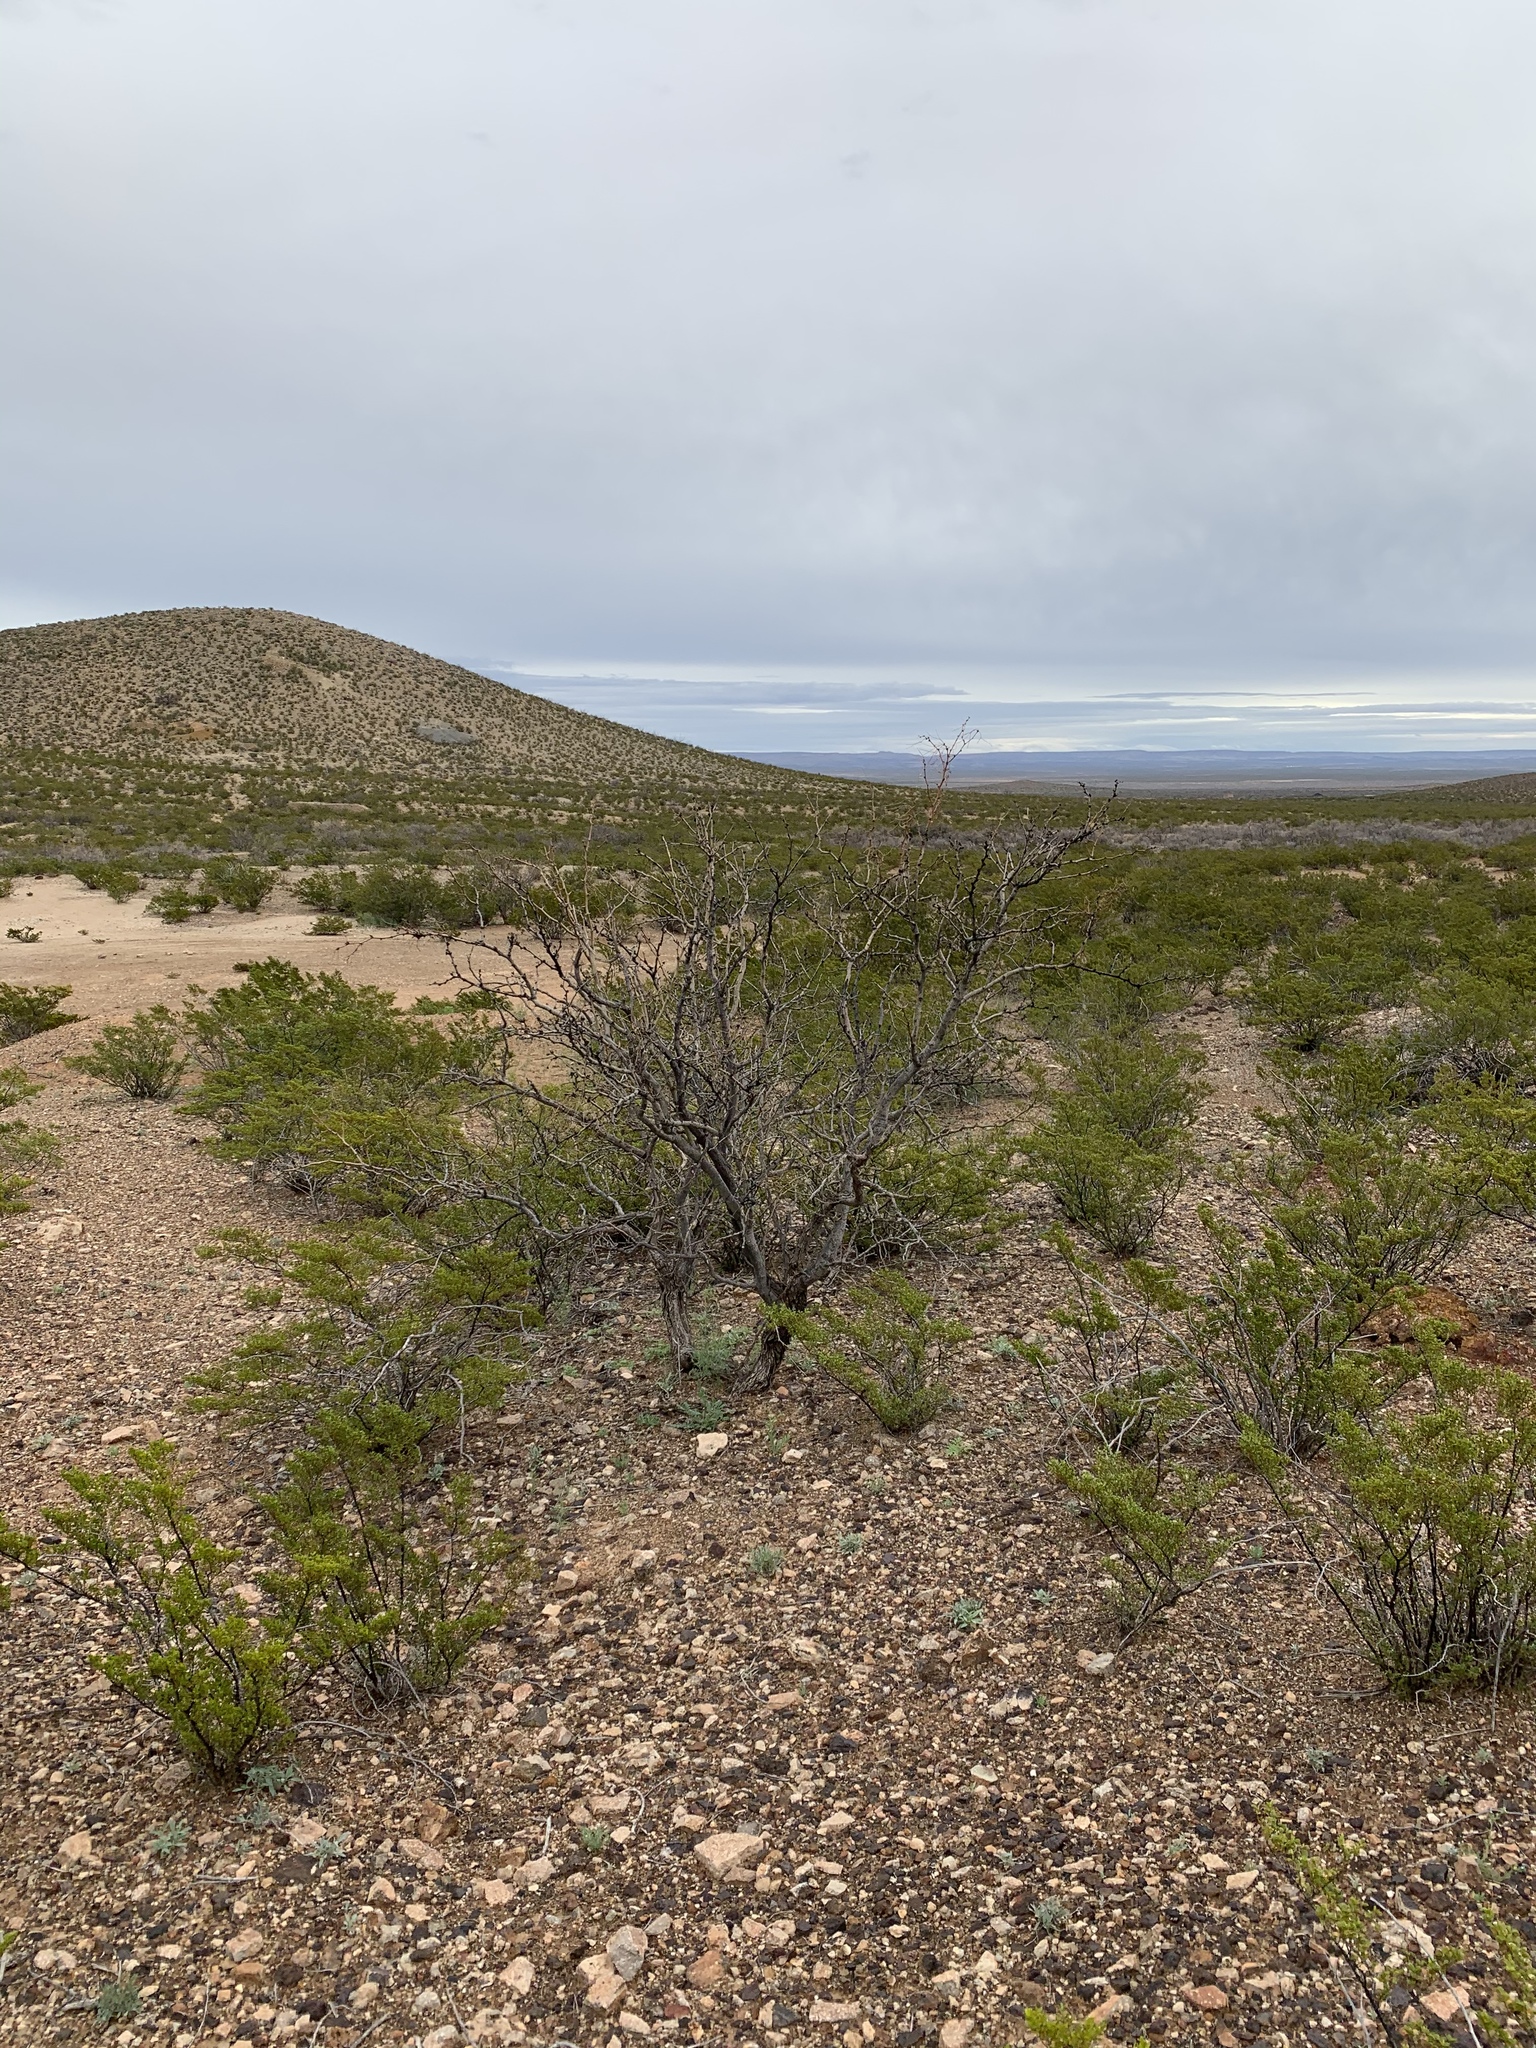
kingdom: Plantae
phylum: Tracheophyta
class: Magnoliopsida
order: Fabales
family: Fabaceae
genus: Prosopis
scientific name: Prosopis glandulosa
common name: Honey mesquite
